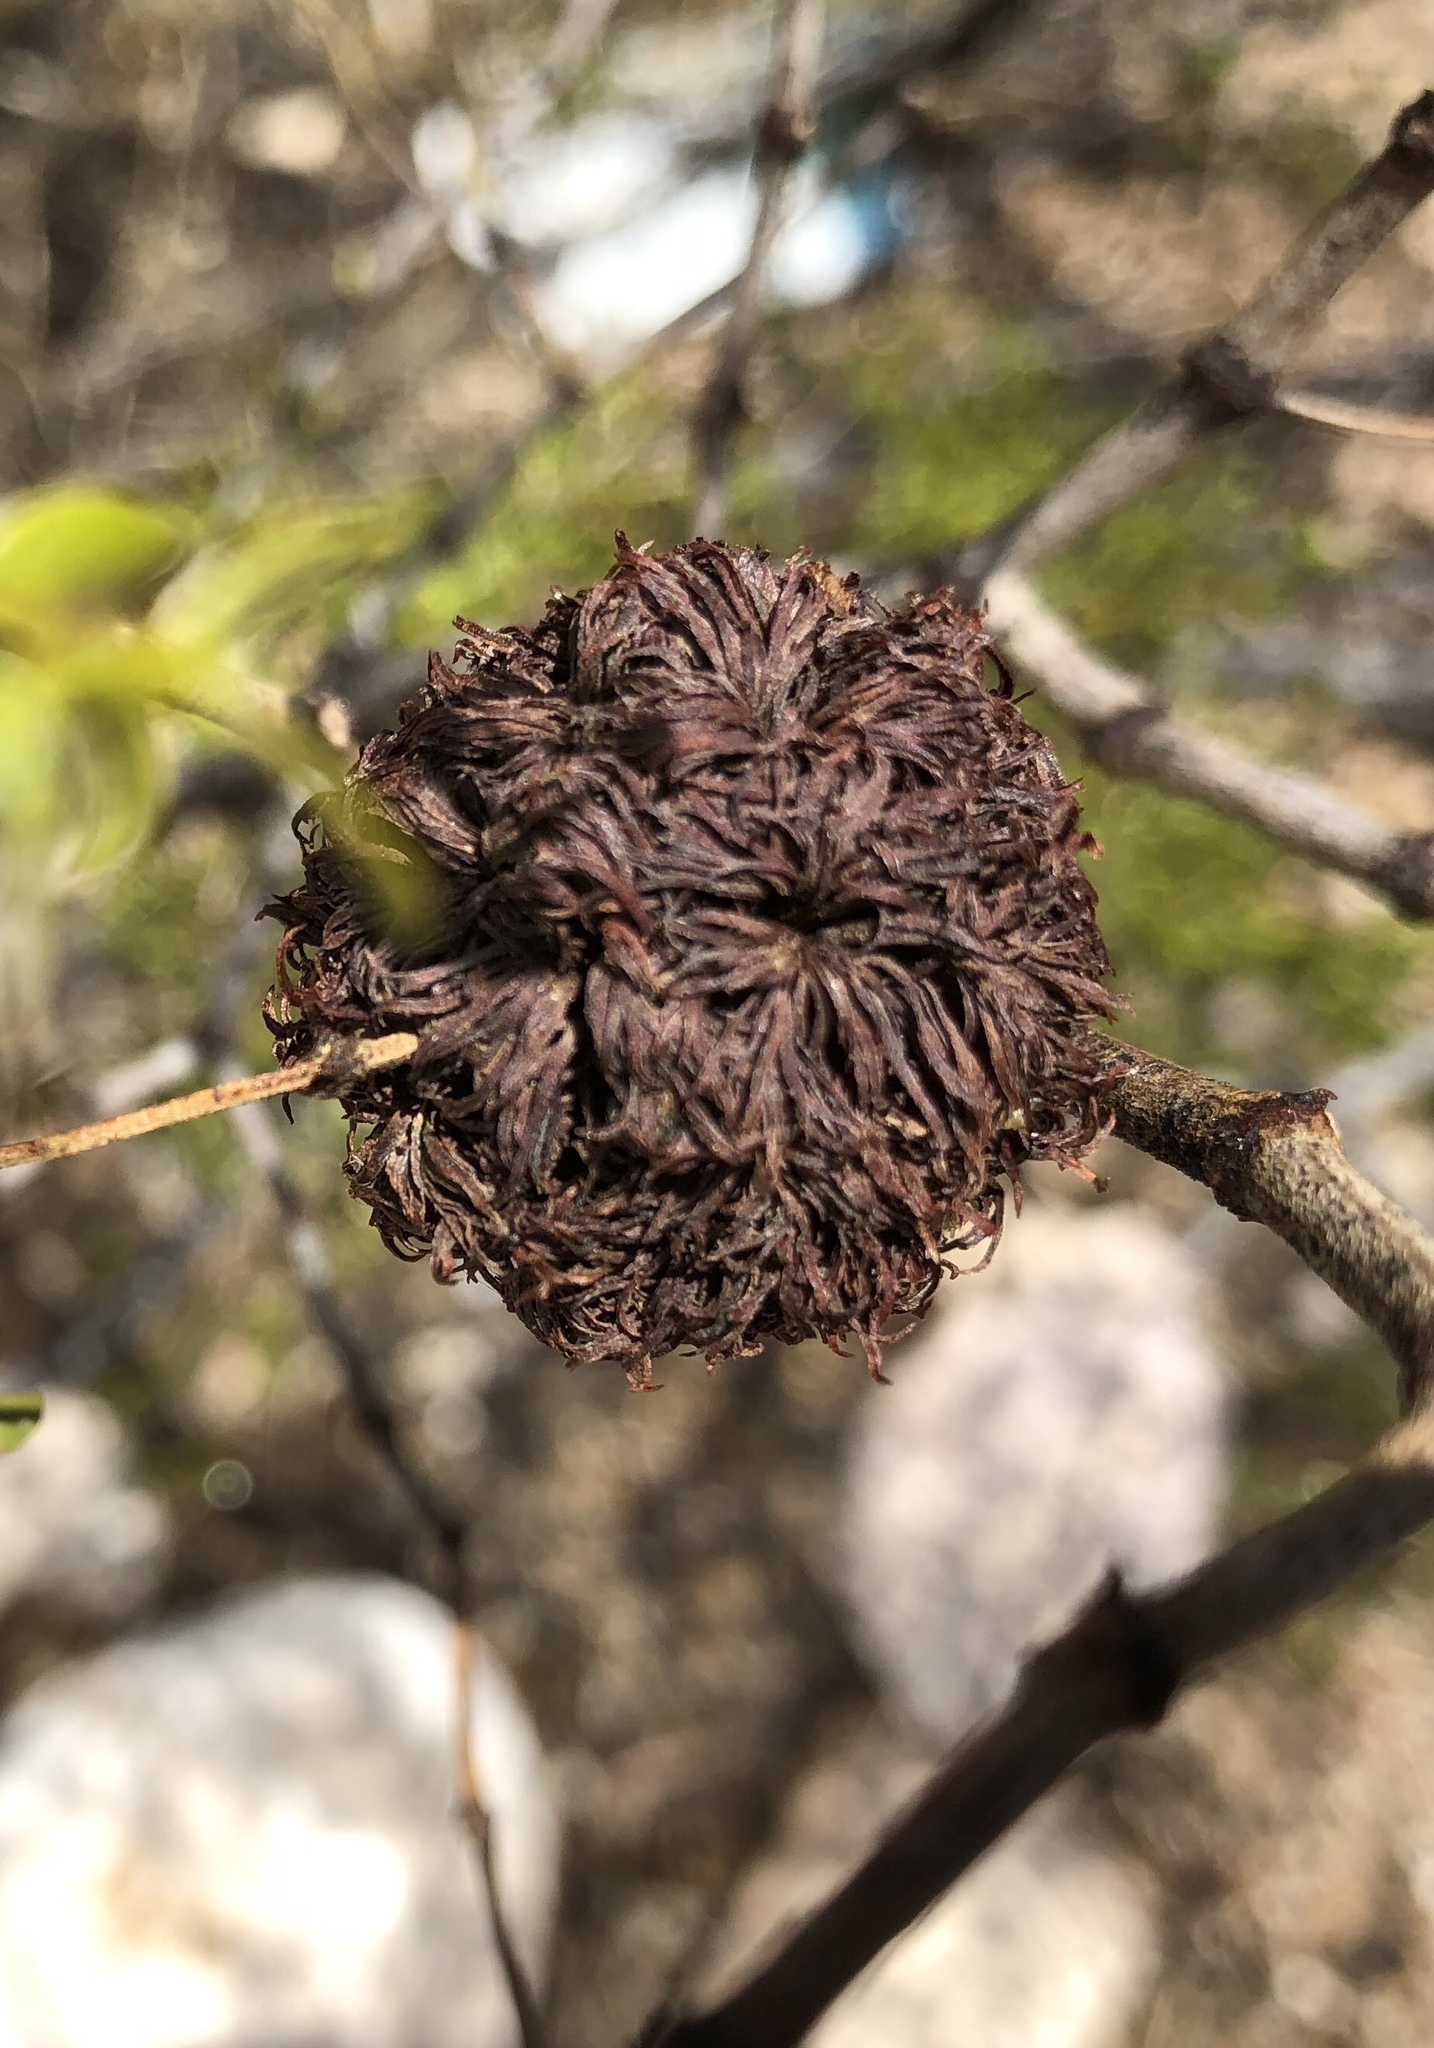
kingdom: Animalia
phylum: Arthropoda
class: Insecta
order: Diptera
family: Cecidomyiidae
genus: Asphondylia
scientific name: Asphondylia auripila
